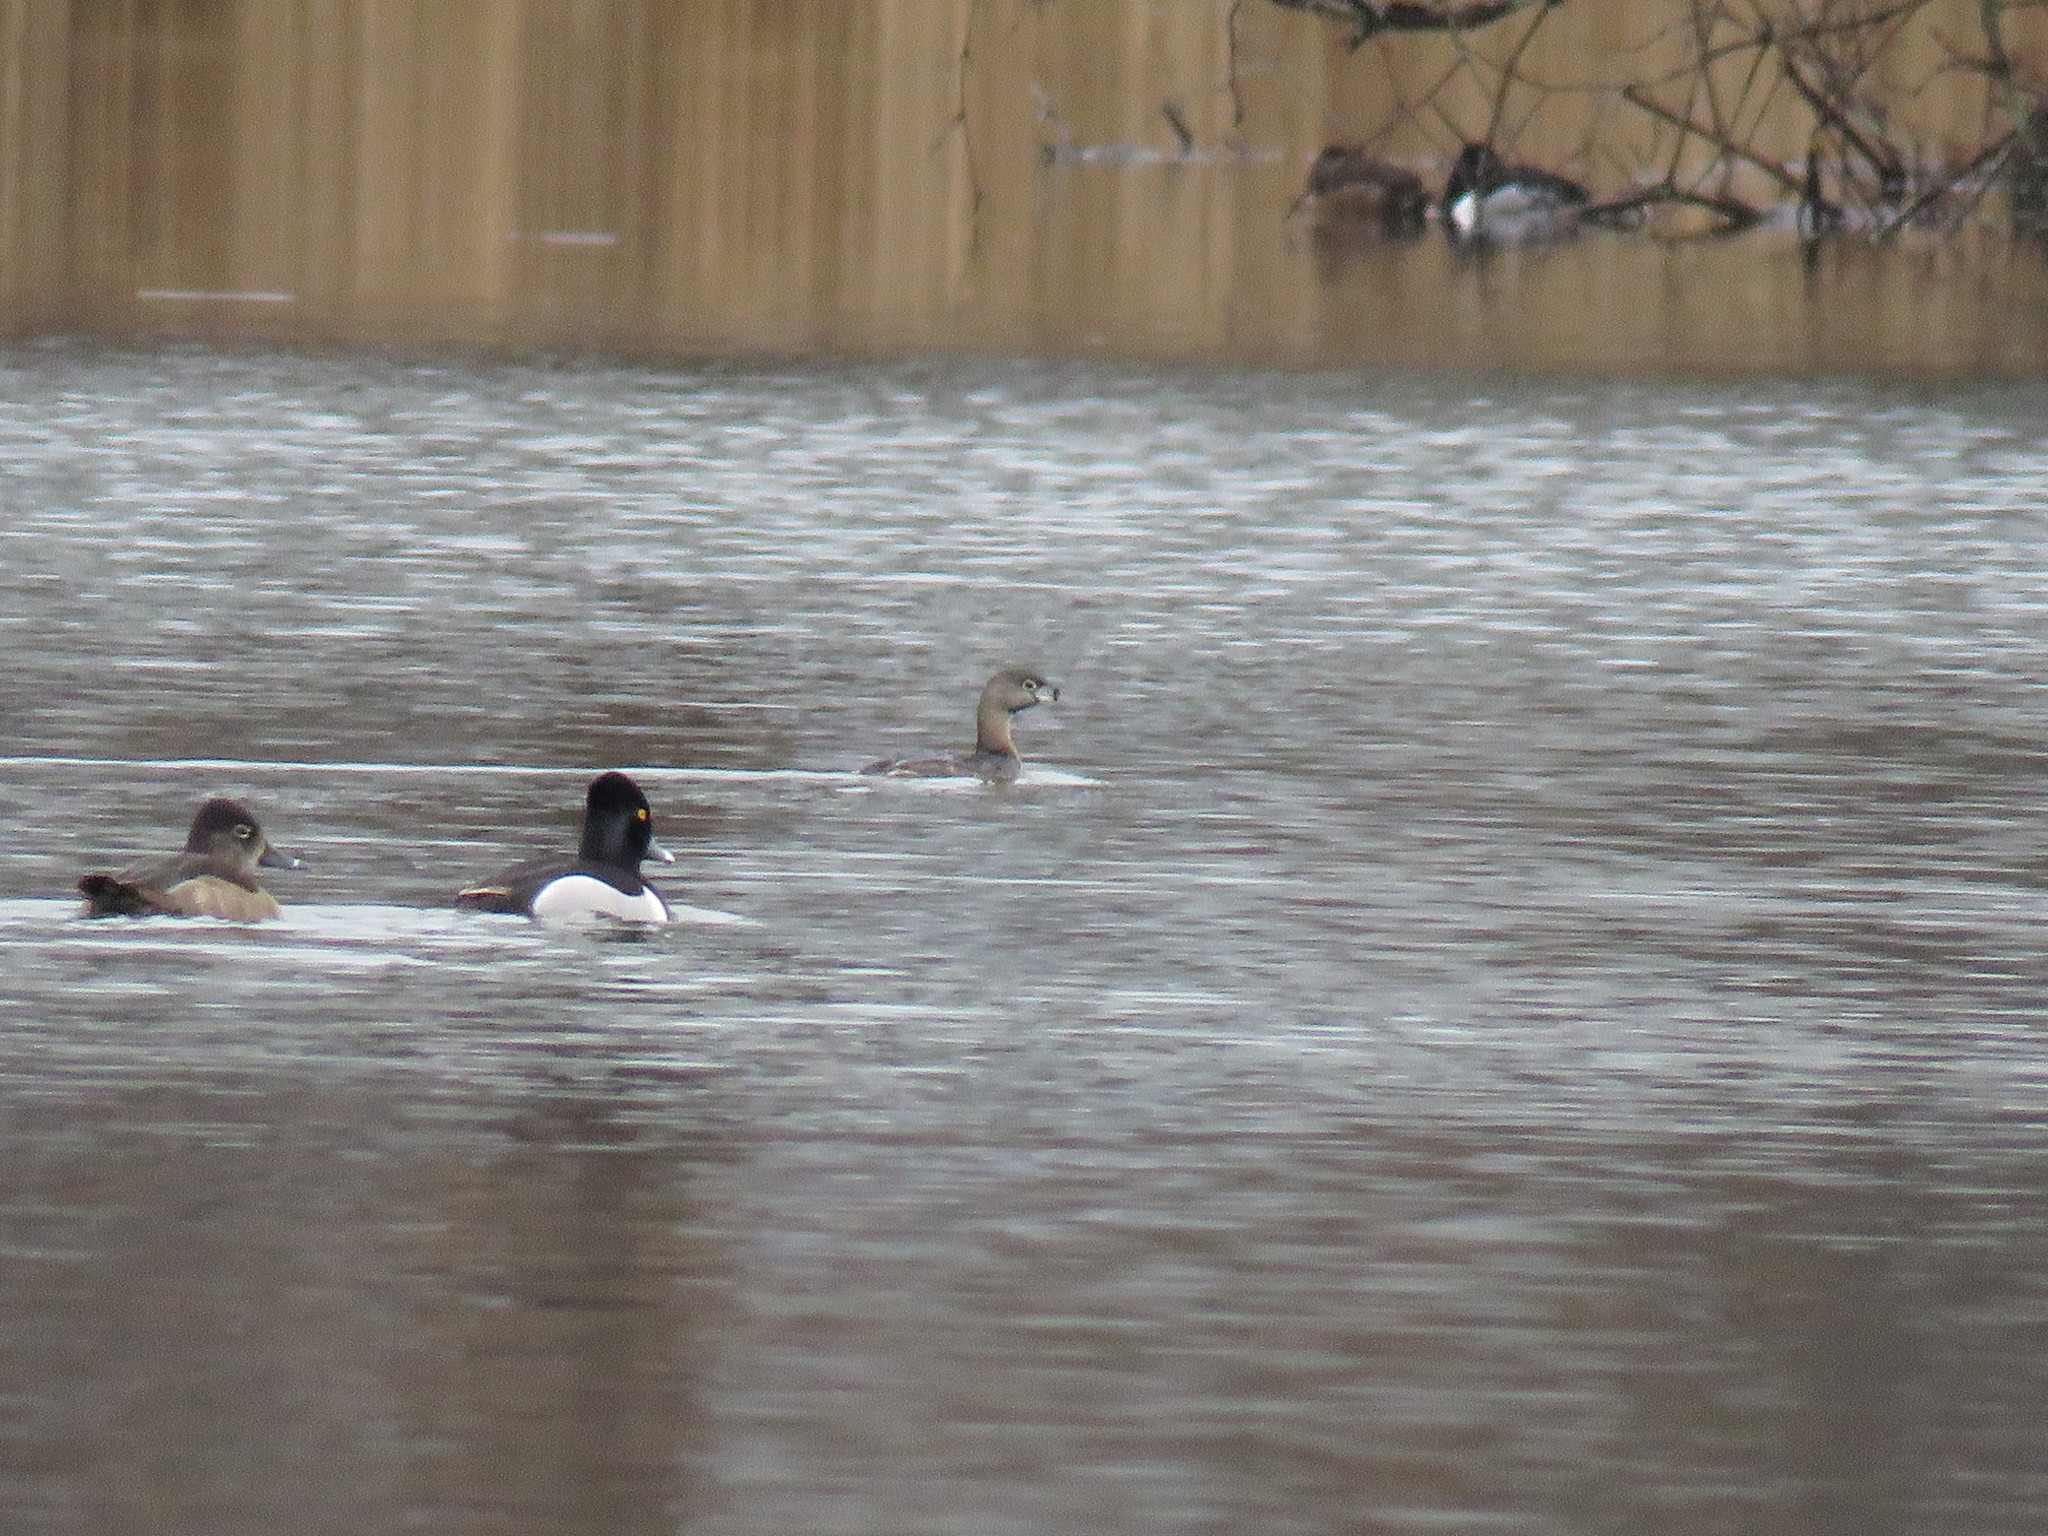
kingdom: Animalia
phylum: Chordata
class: Aves
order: Podicipediformes
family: Podicipedidae
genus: Podilymbus
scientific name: Podilymbus podiceps
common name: Pied-billed grebe
